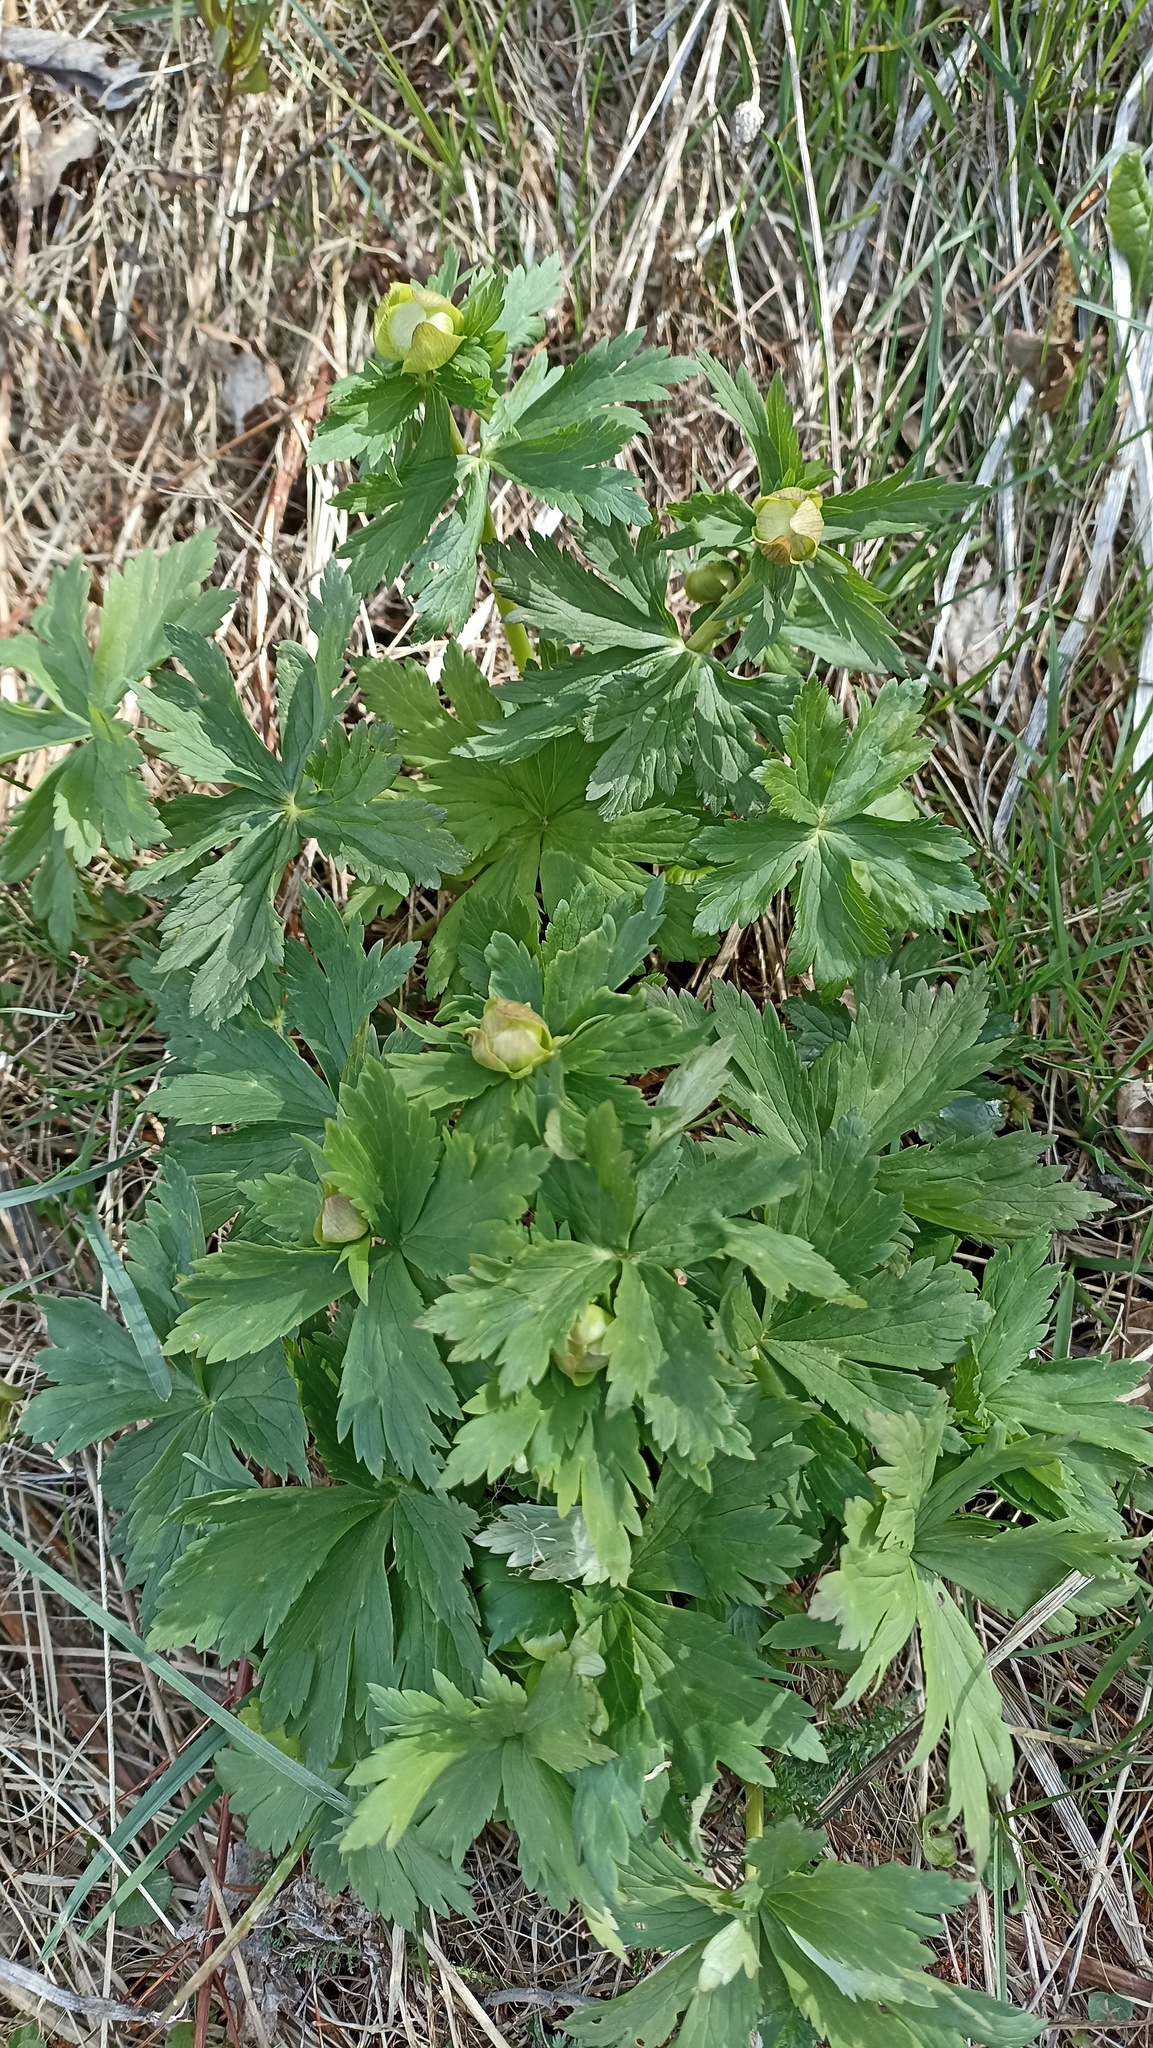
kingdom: Plantae
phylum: Tracheophyta
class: Magnoliopsida
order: Ranunculales
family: Ranunculaceae
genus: Trollius
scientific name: Trollius europaeus
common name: European globeflower
